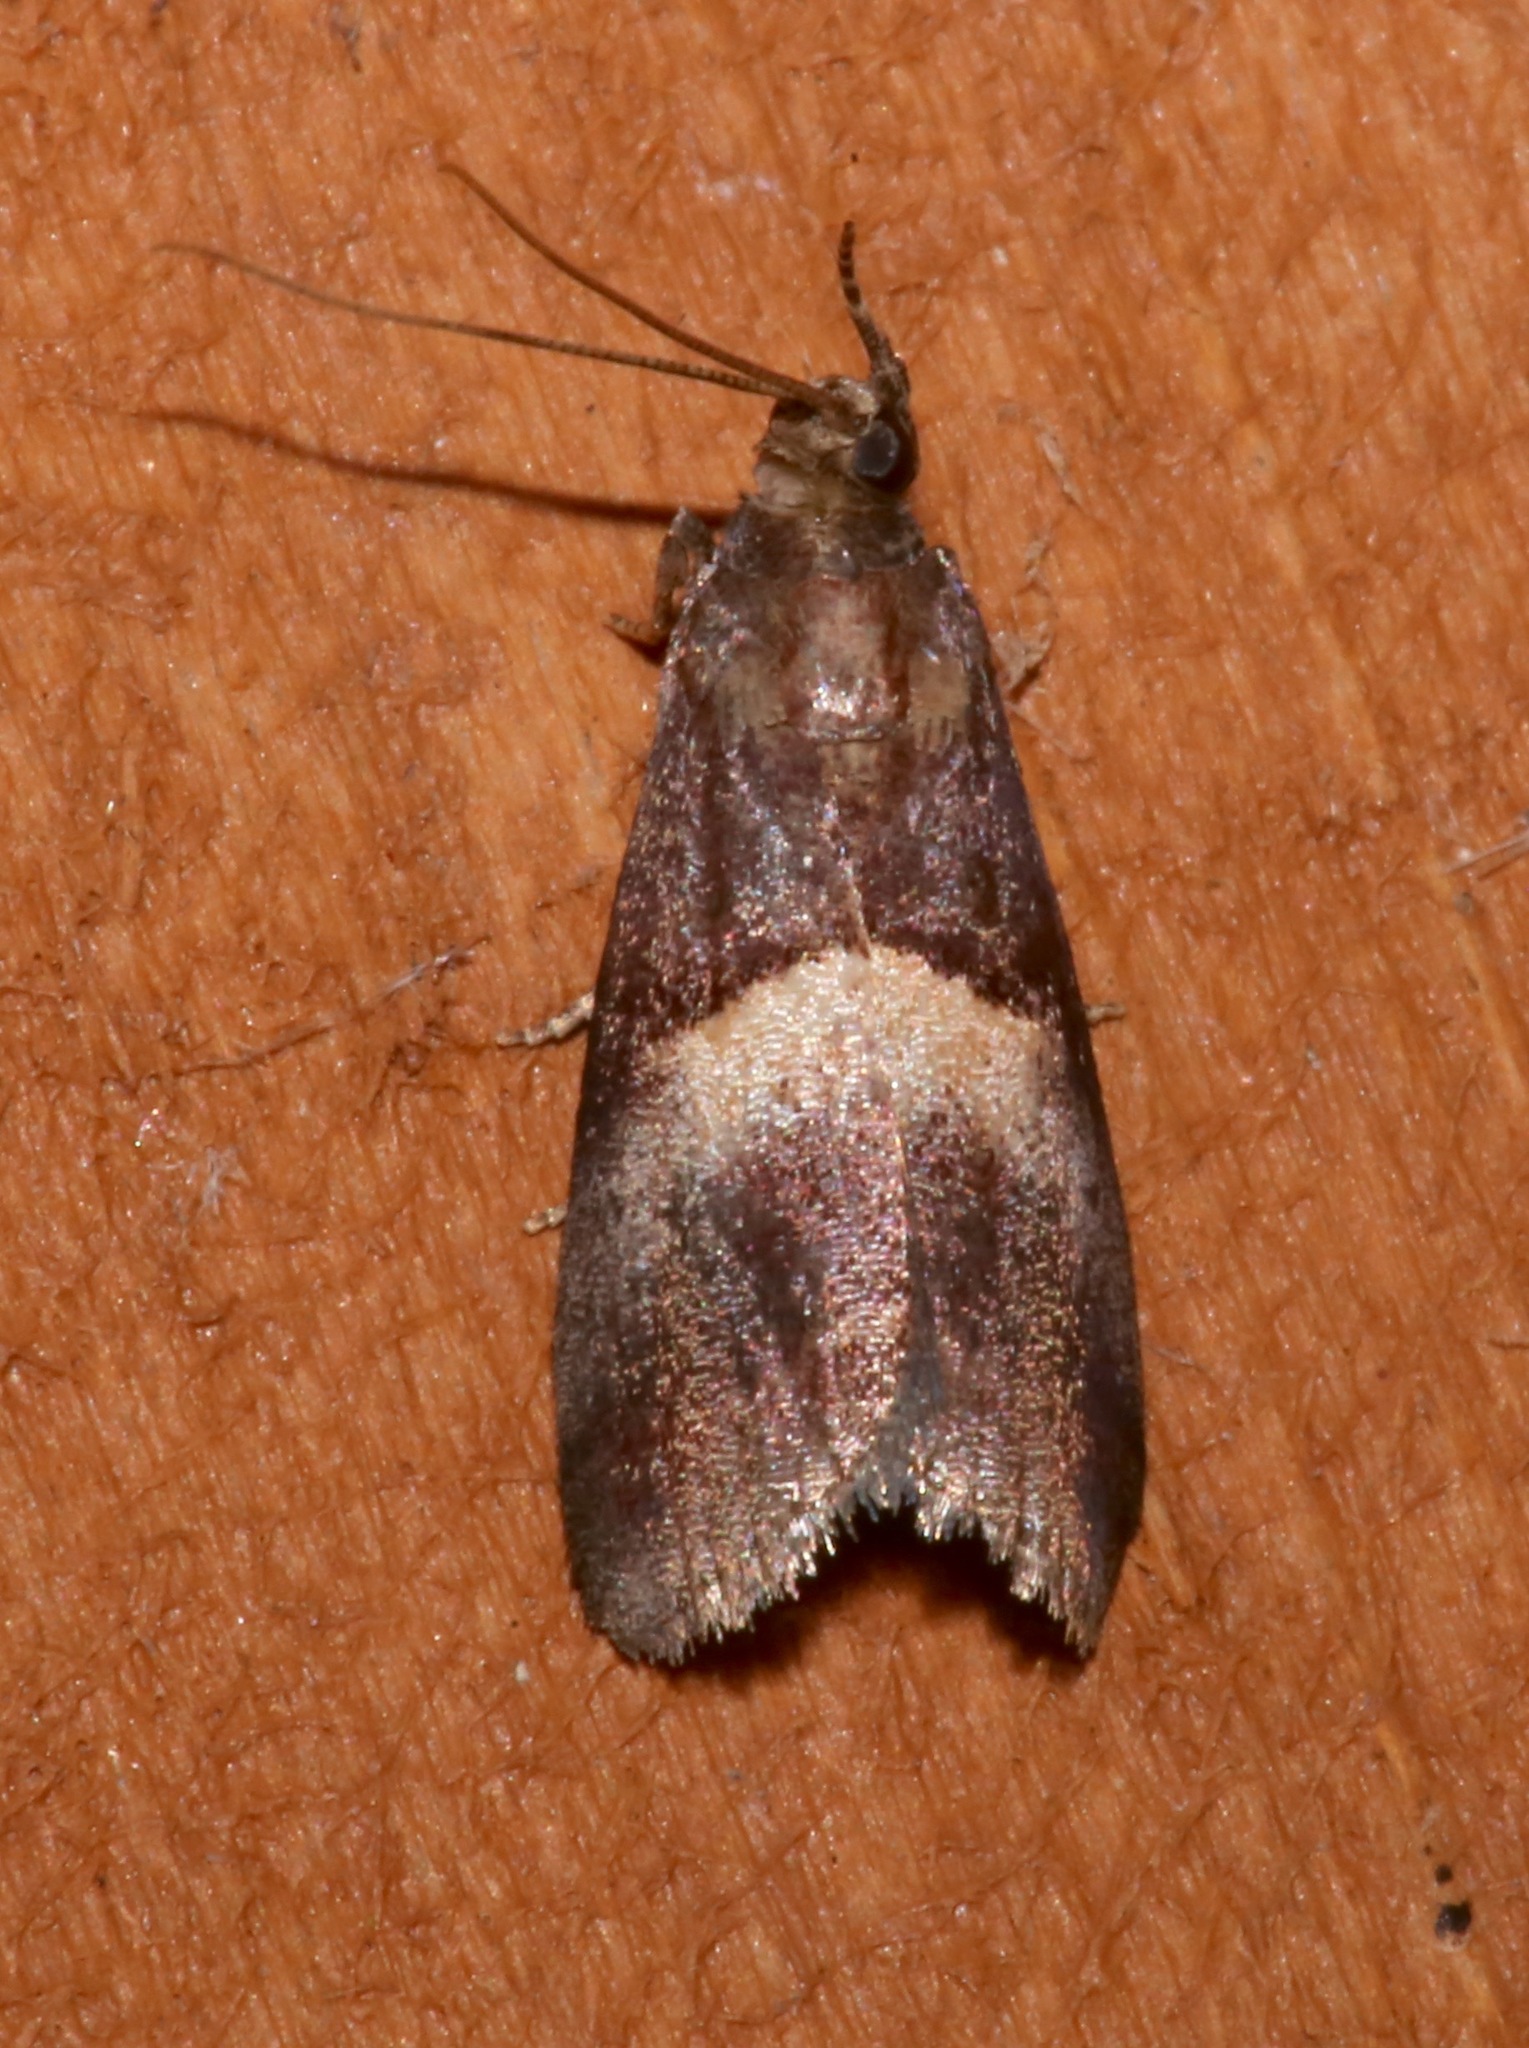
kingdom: Animalia
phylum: Arthropoda
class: Insecta
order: Lepidoptera
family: Pyralidae
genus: Acrobasis
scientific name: Acrobasis exsulella
